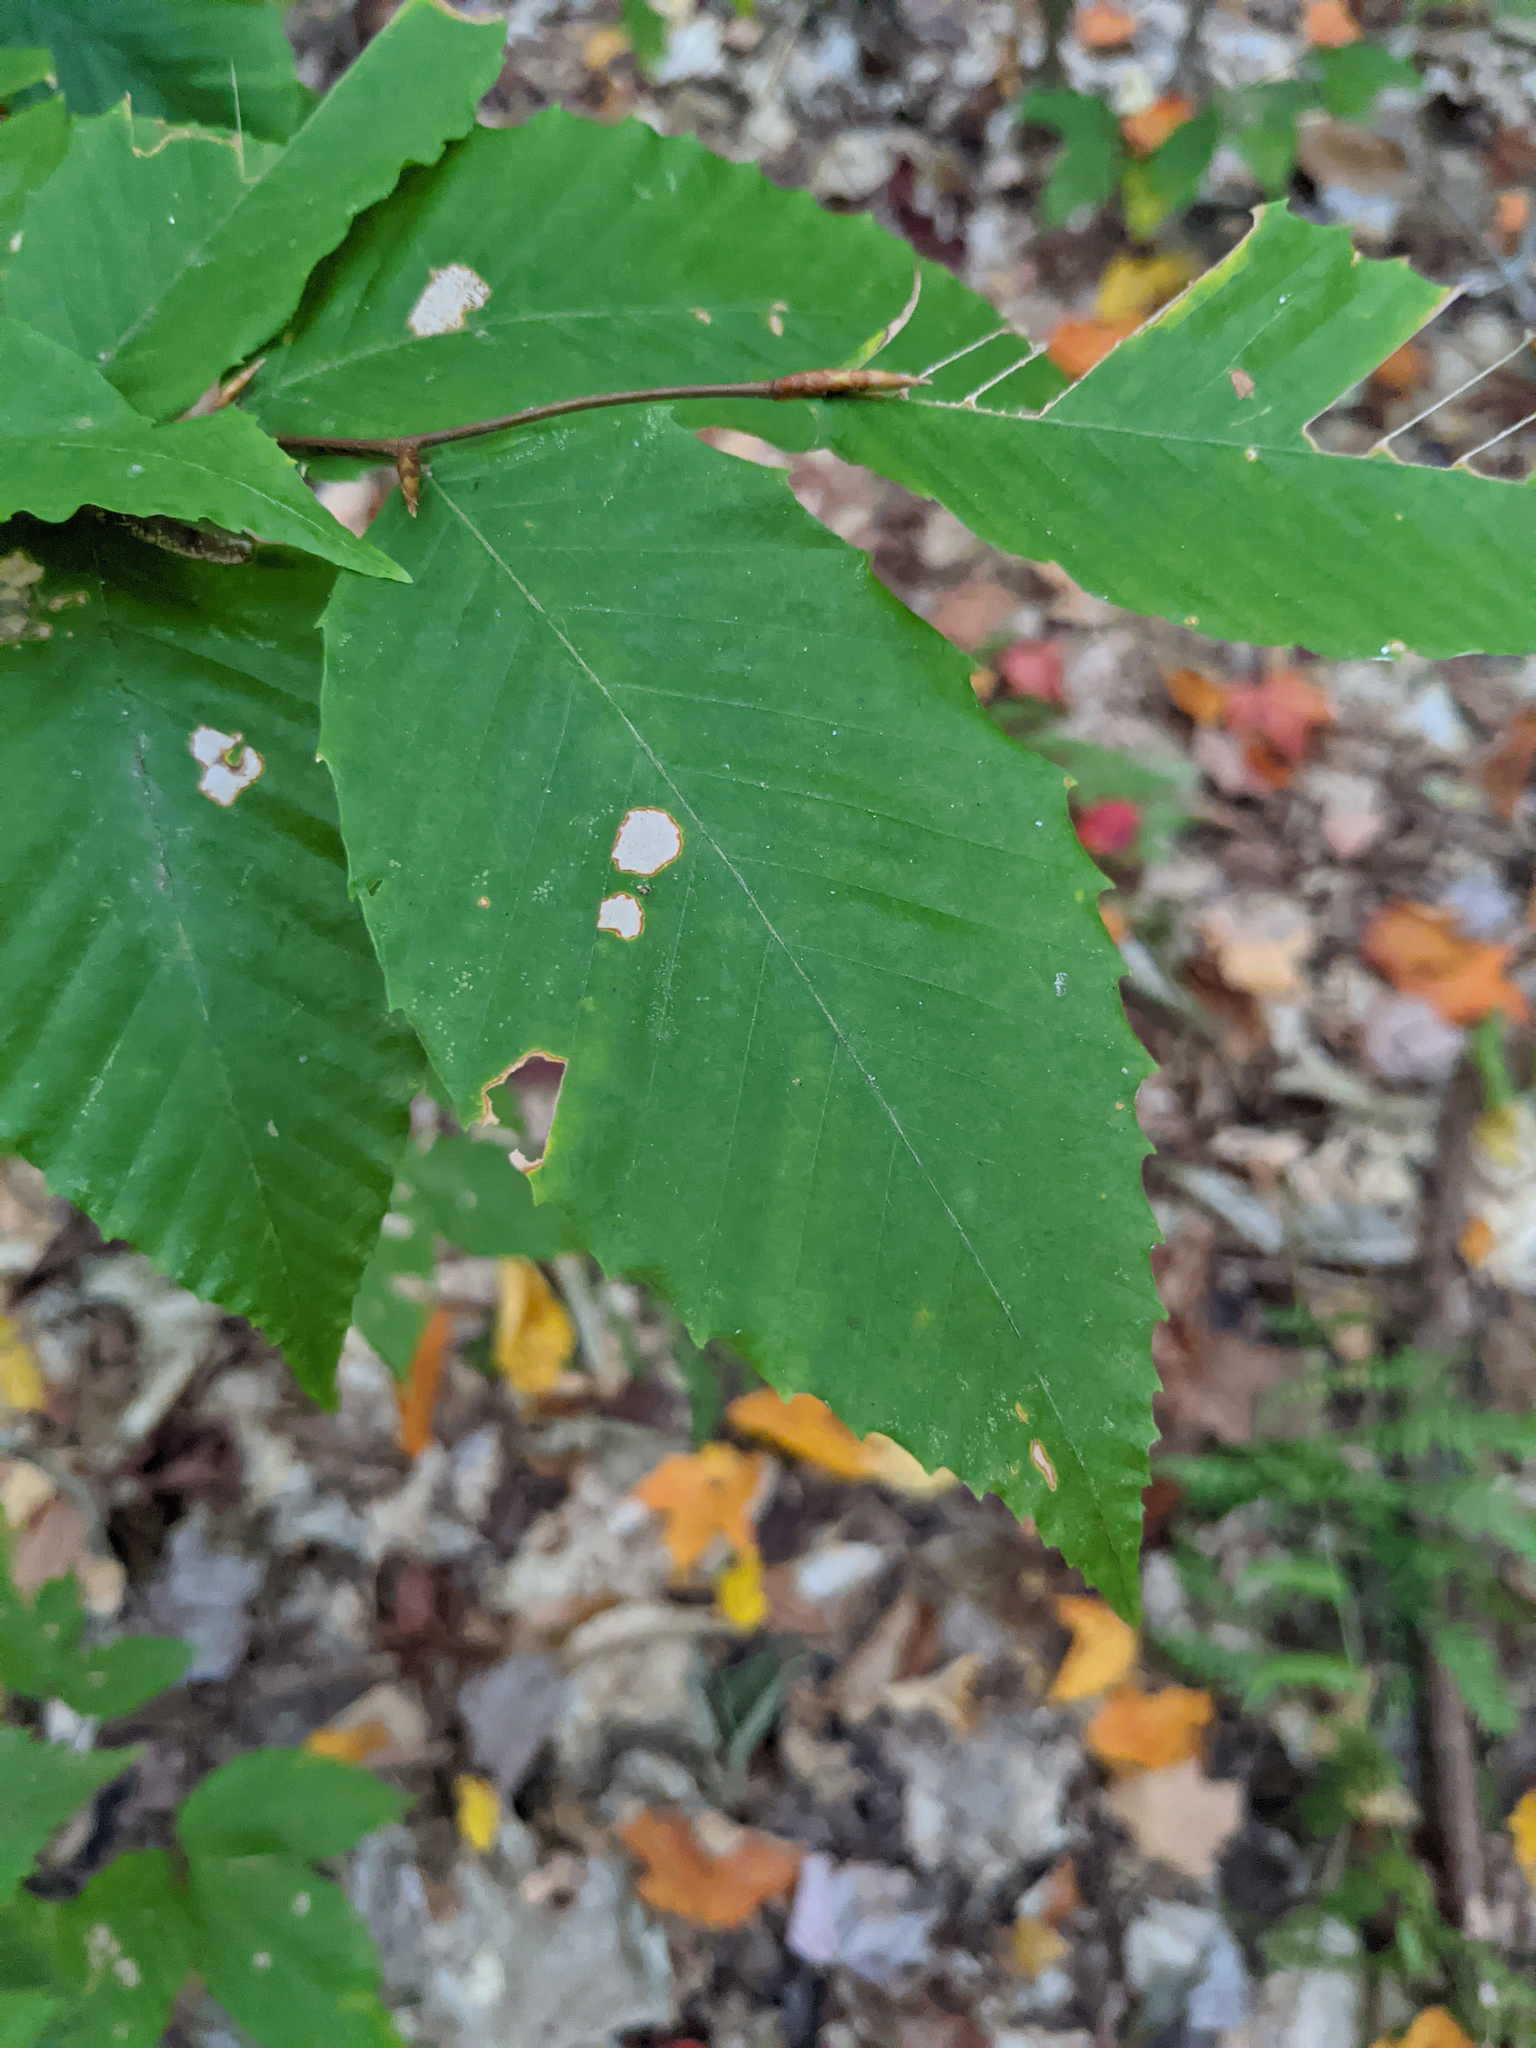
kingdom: Plantae
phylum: Tracheophyta
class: Magnoliopsida
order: Fagales
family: Fagaceae
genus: Fagus
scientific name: Fagus grandifolia
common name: American beech
